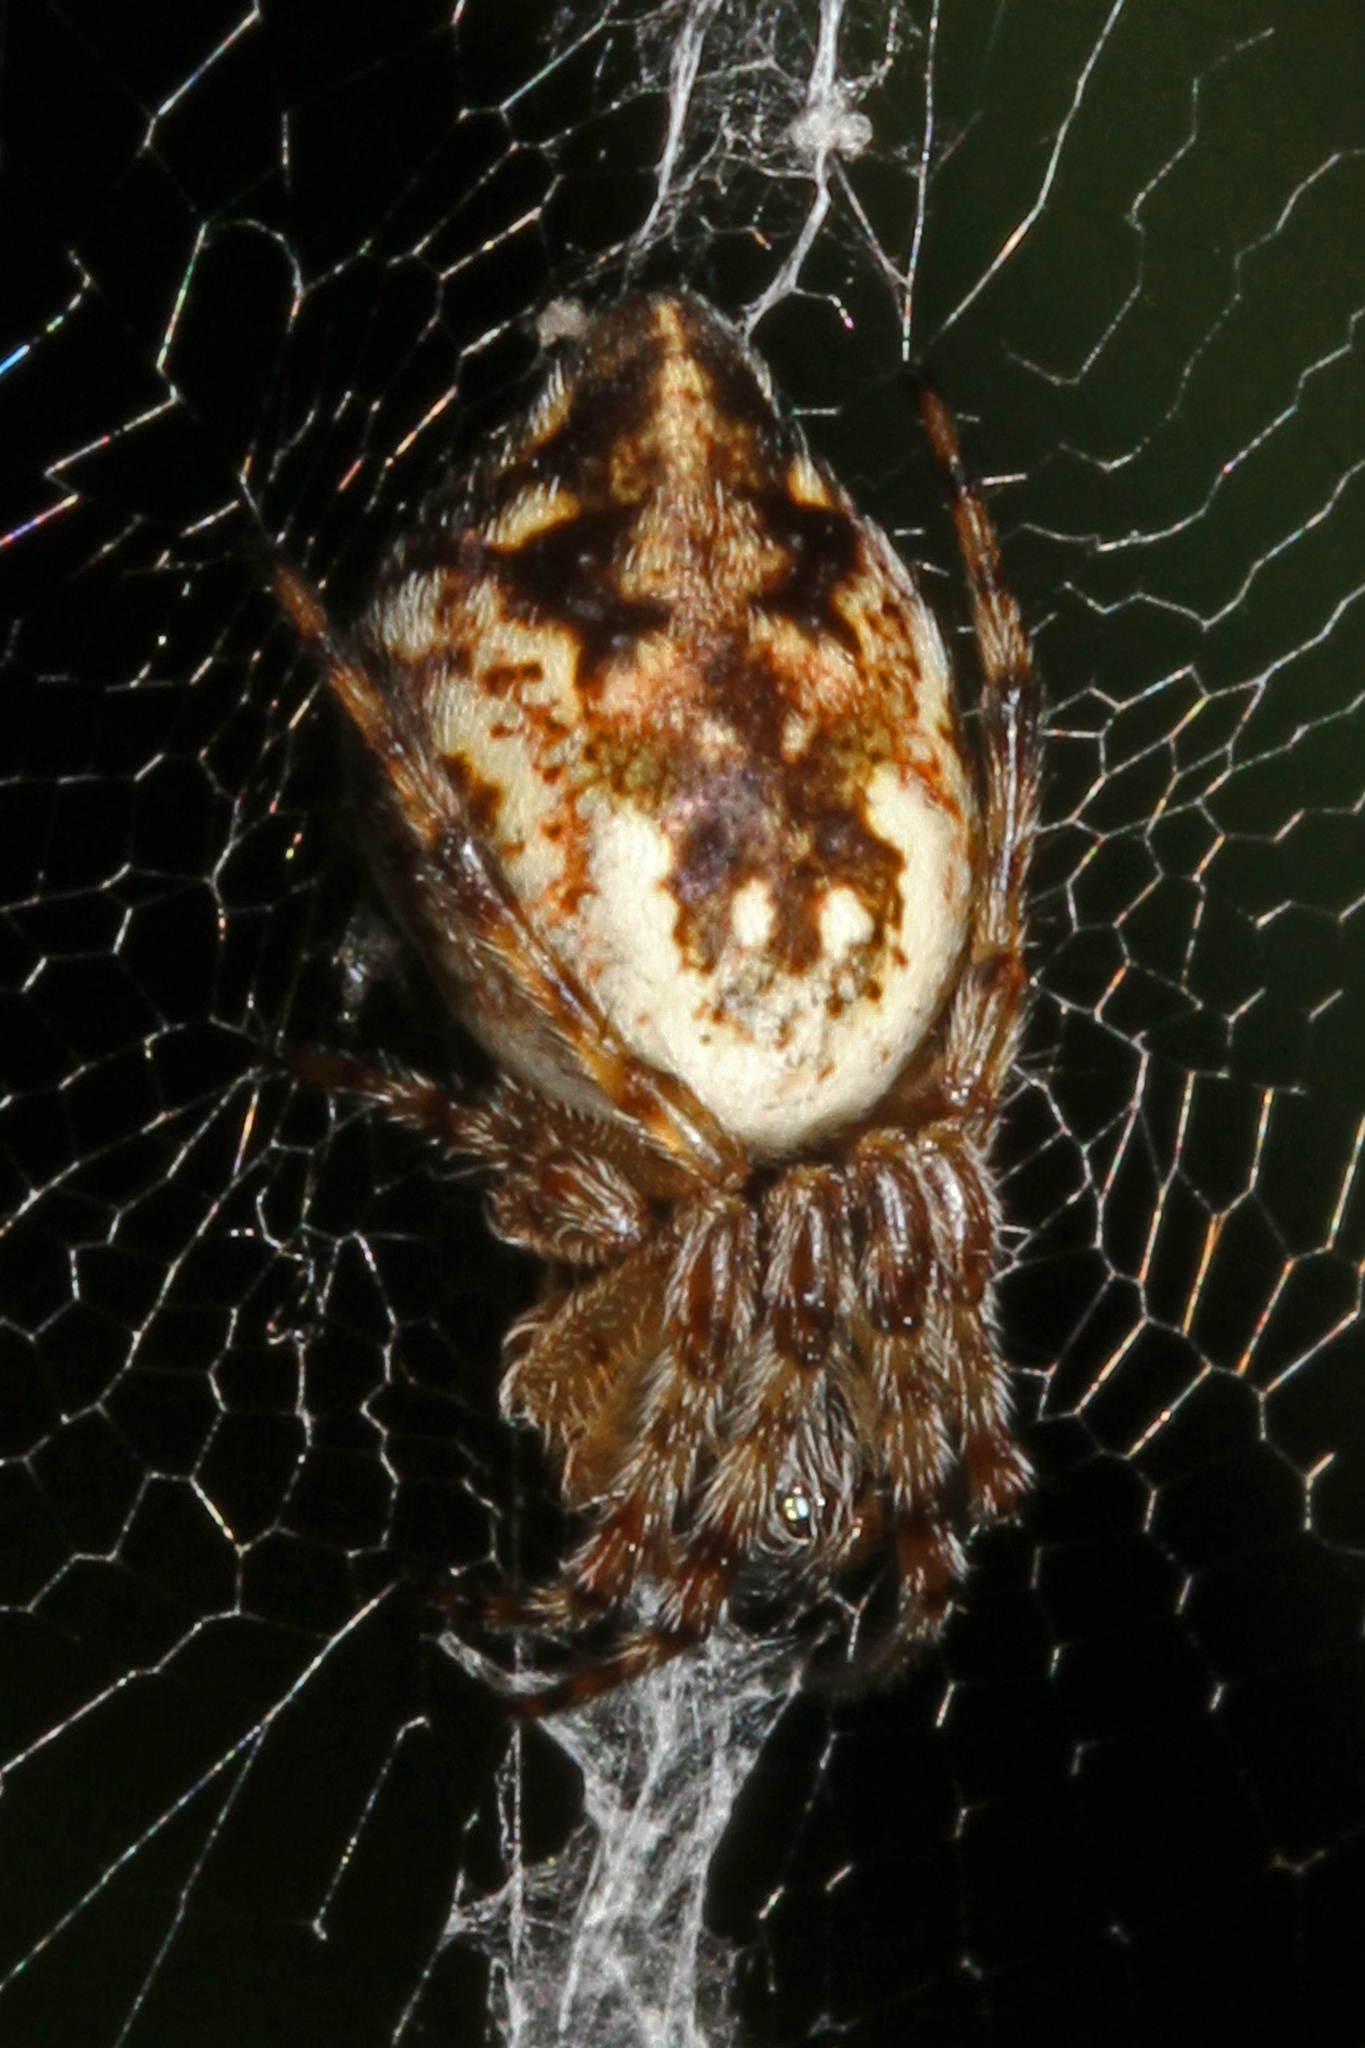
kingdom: Animalia
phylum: Arthropoda
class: Arachnida
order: Araneae
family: Araneidae
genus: Cyclosa
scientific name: Cyclosa conica
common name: Conical trashline orbweaver
